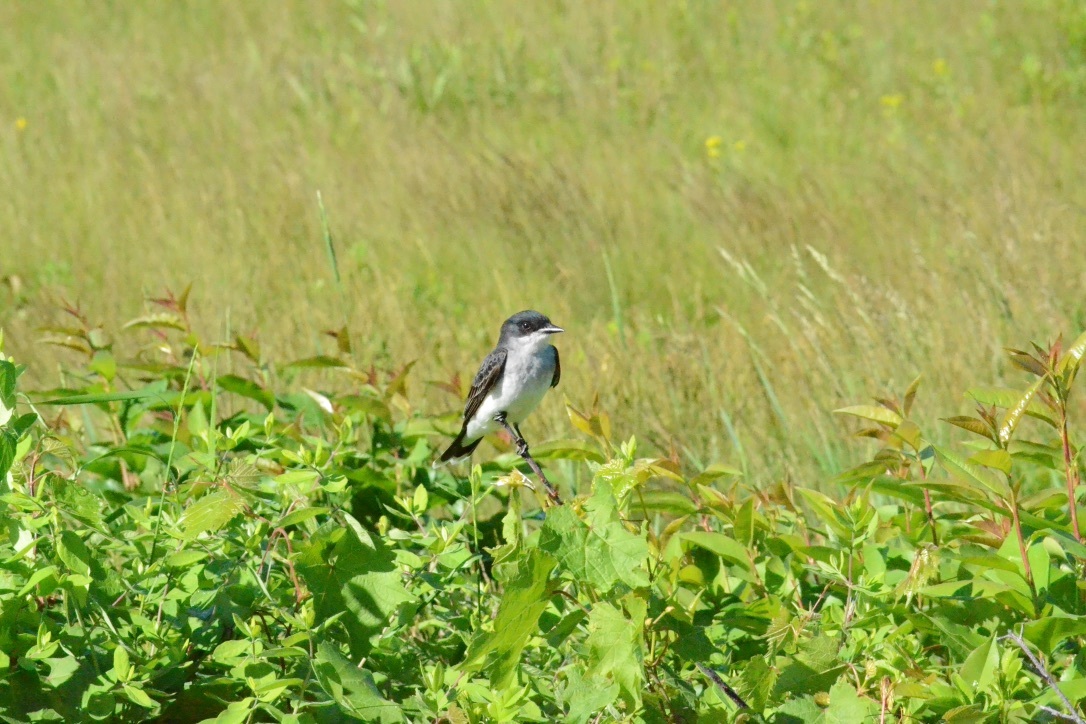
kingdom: Animalia
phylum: Chordata
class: Aves
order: Passeriformes
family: Tyrannidae
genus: Tyrannus
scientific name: Tyrannus tyrannus
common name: Eastern kingbird
